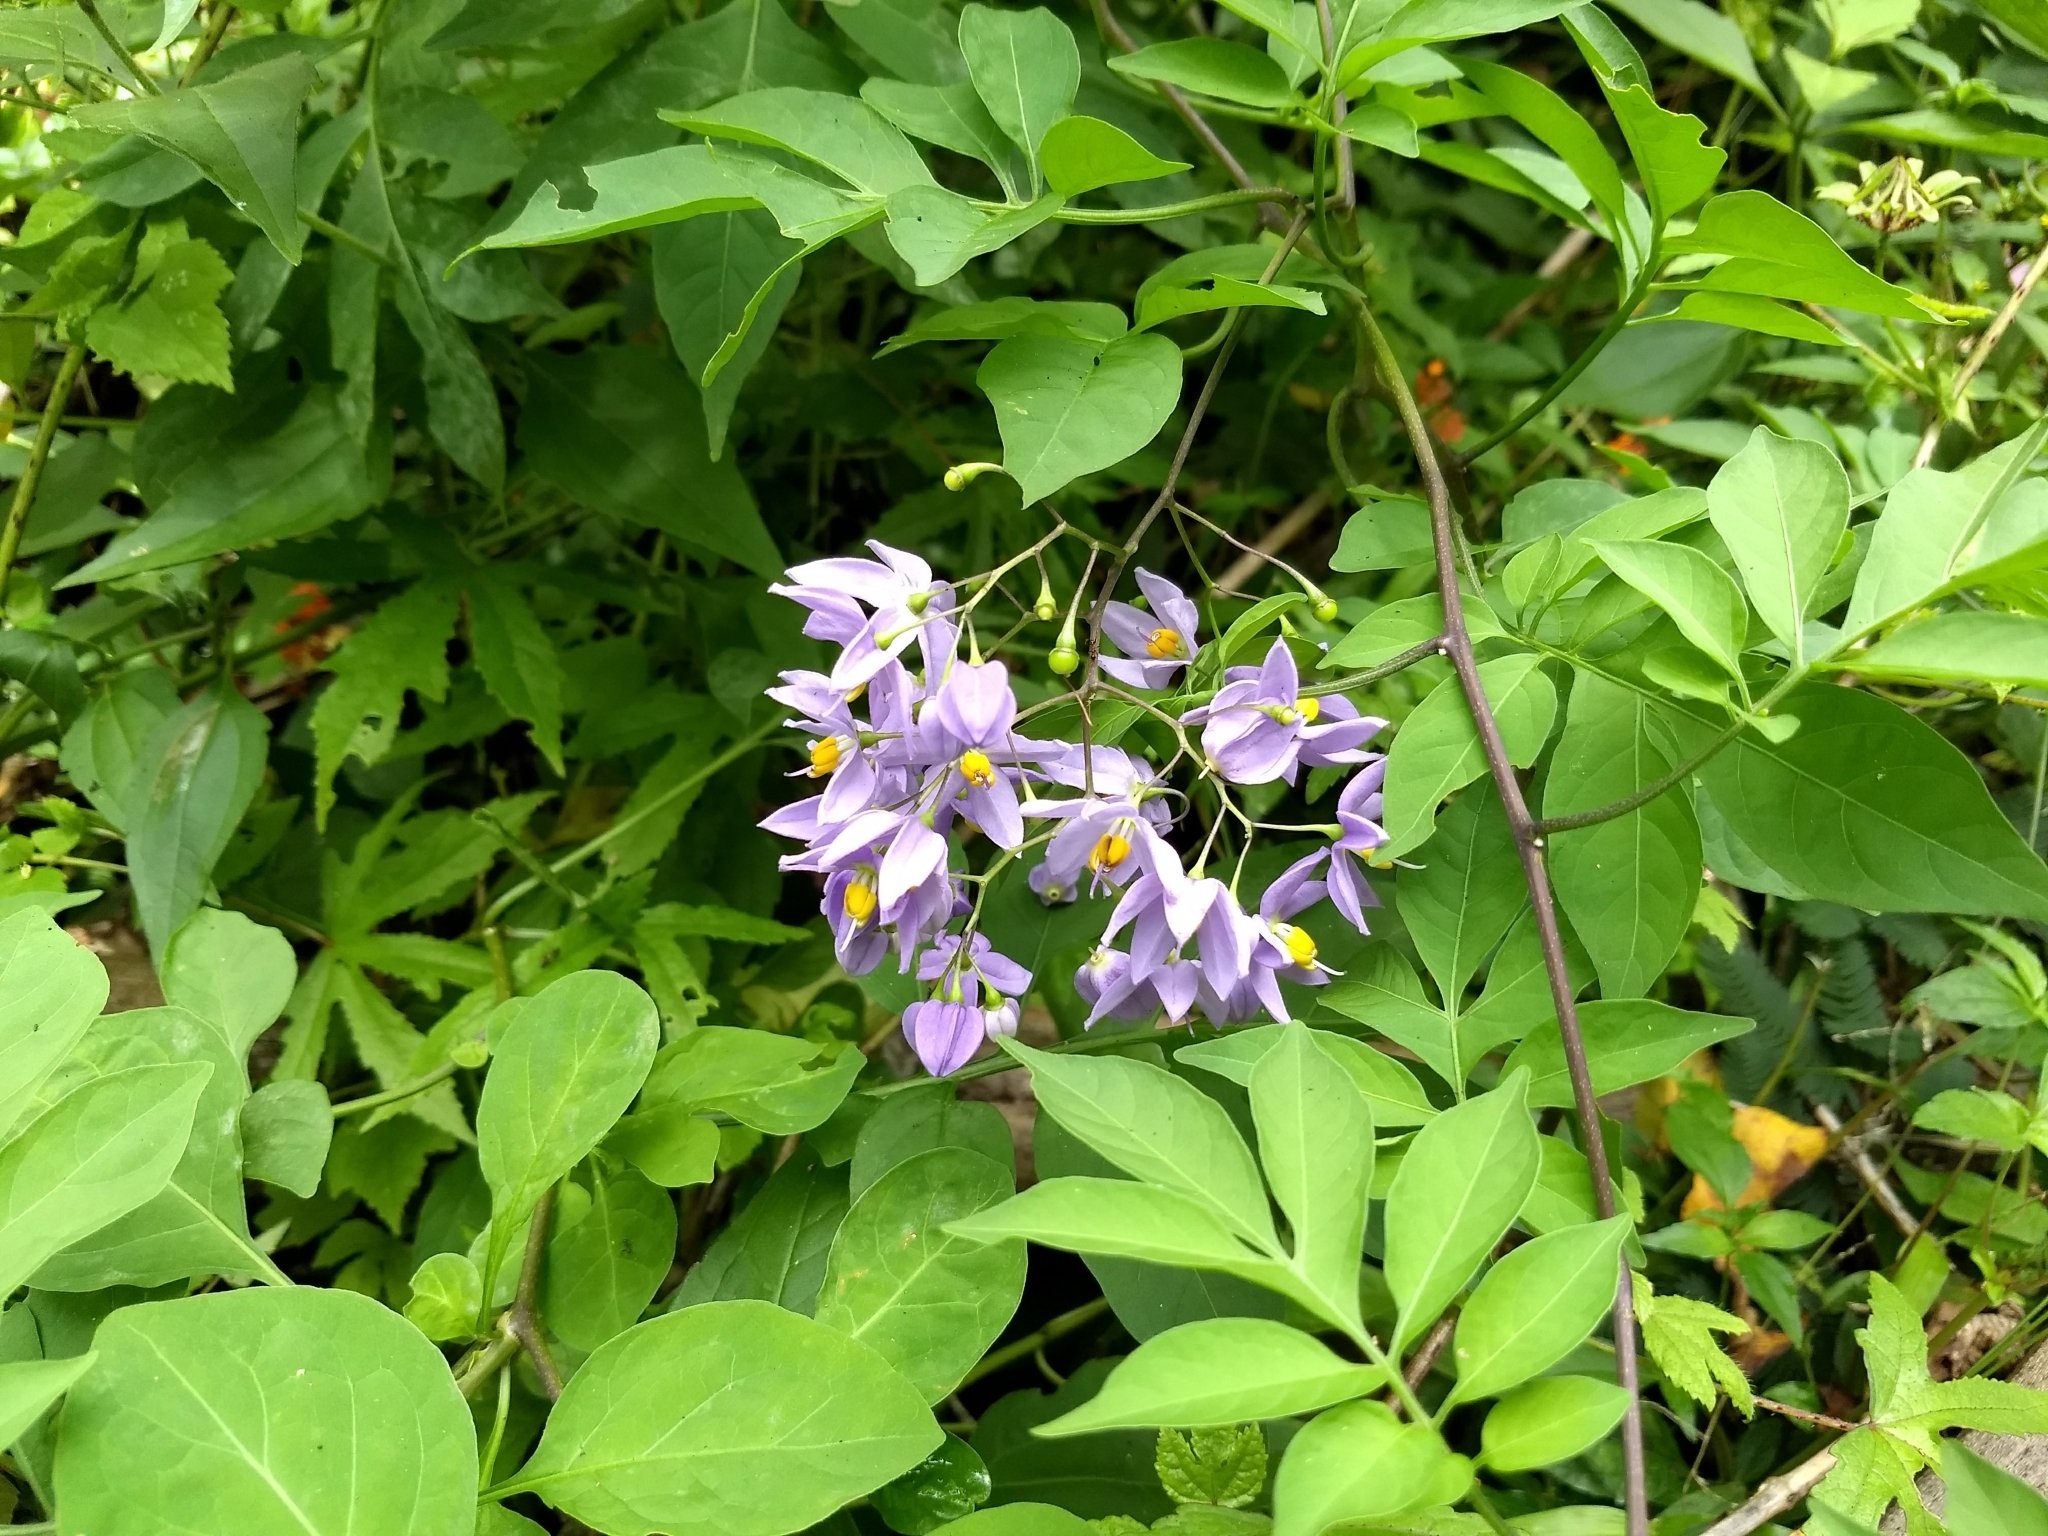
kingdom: Plantae
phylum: Tracheophyta
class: Magnoliopsida
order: Solanales
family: Solanaceae
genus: Solanum
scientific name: Solanum seaforthianum
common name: Brazilian nightshade
